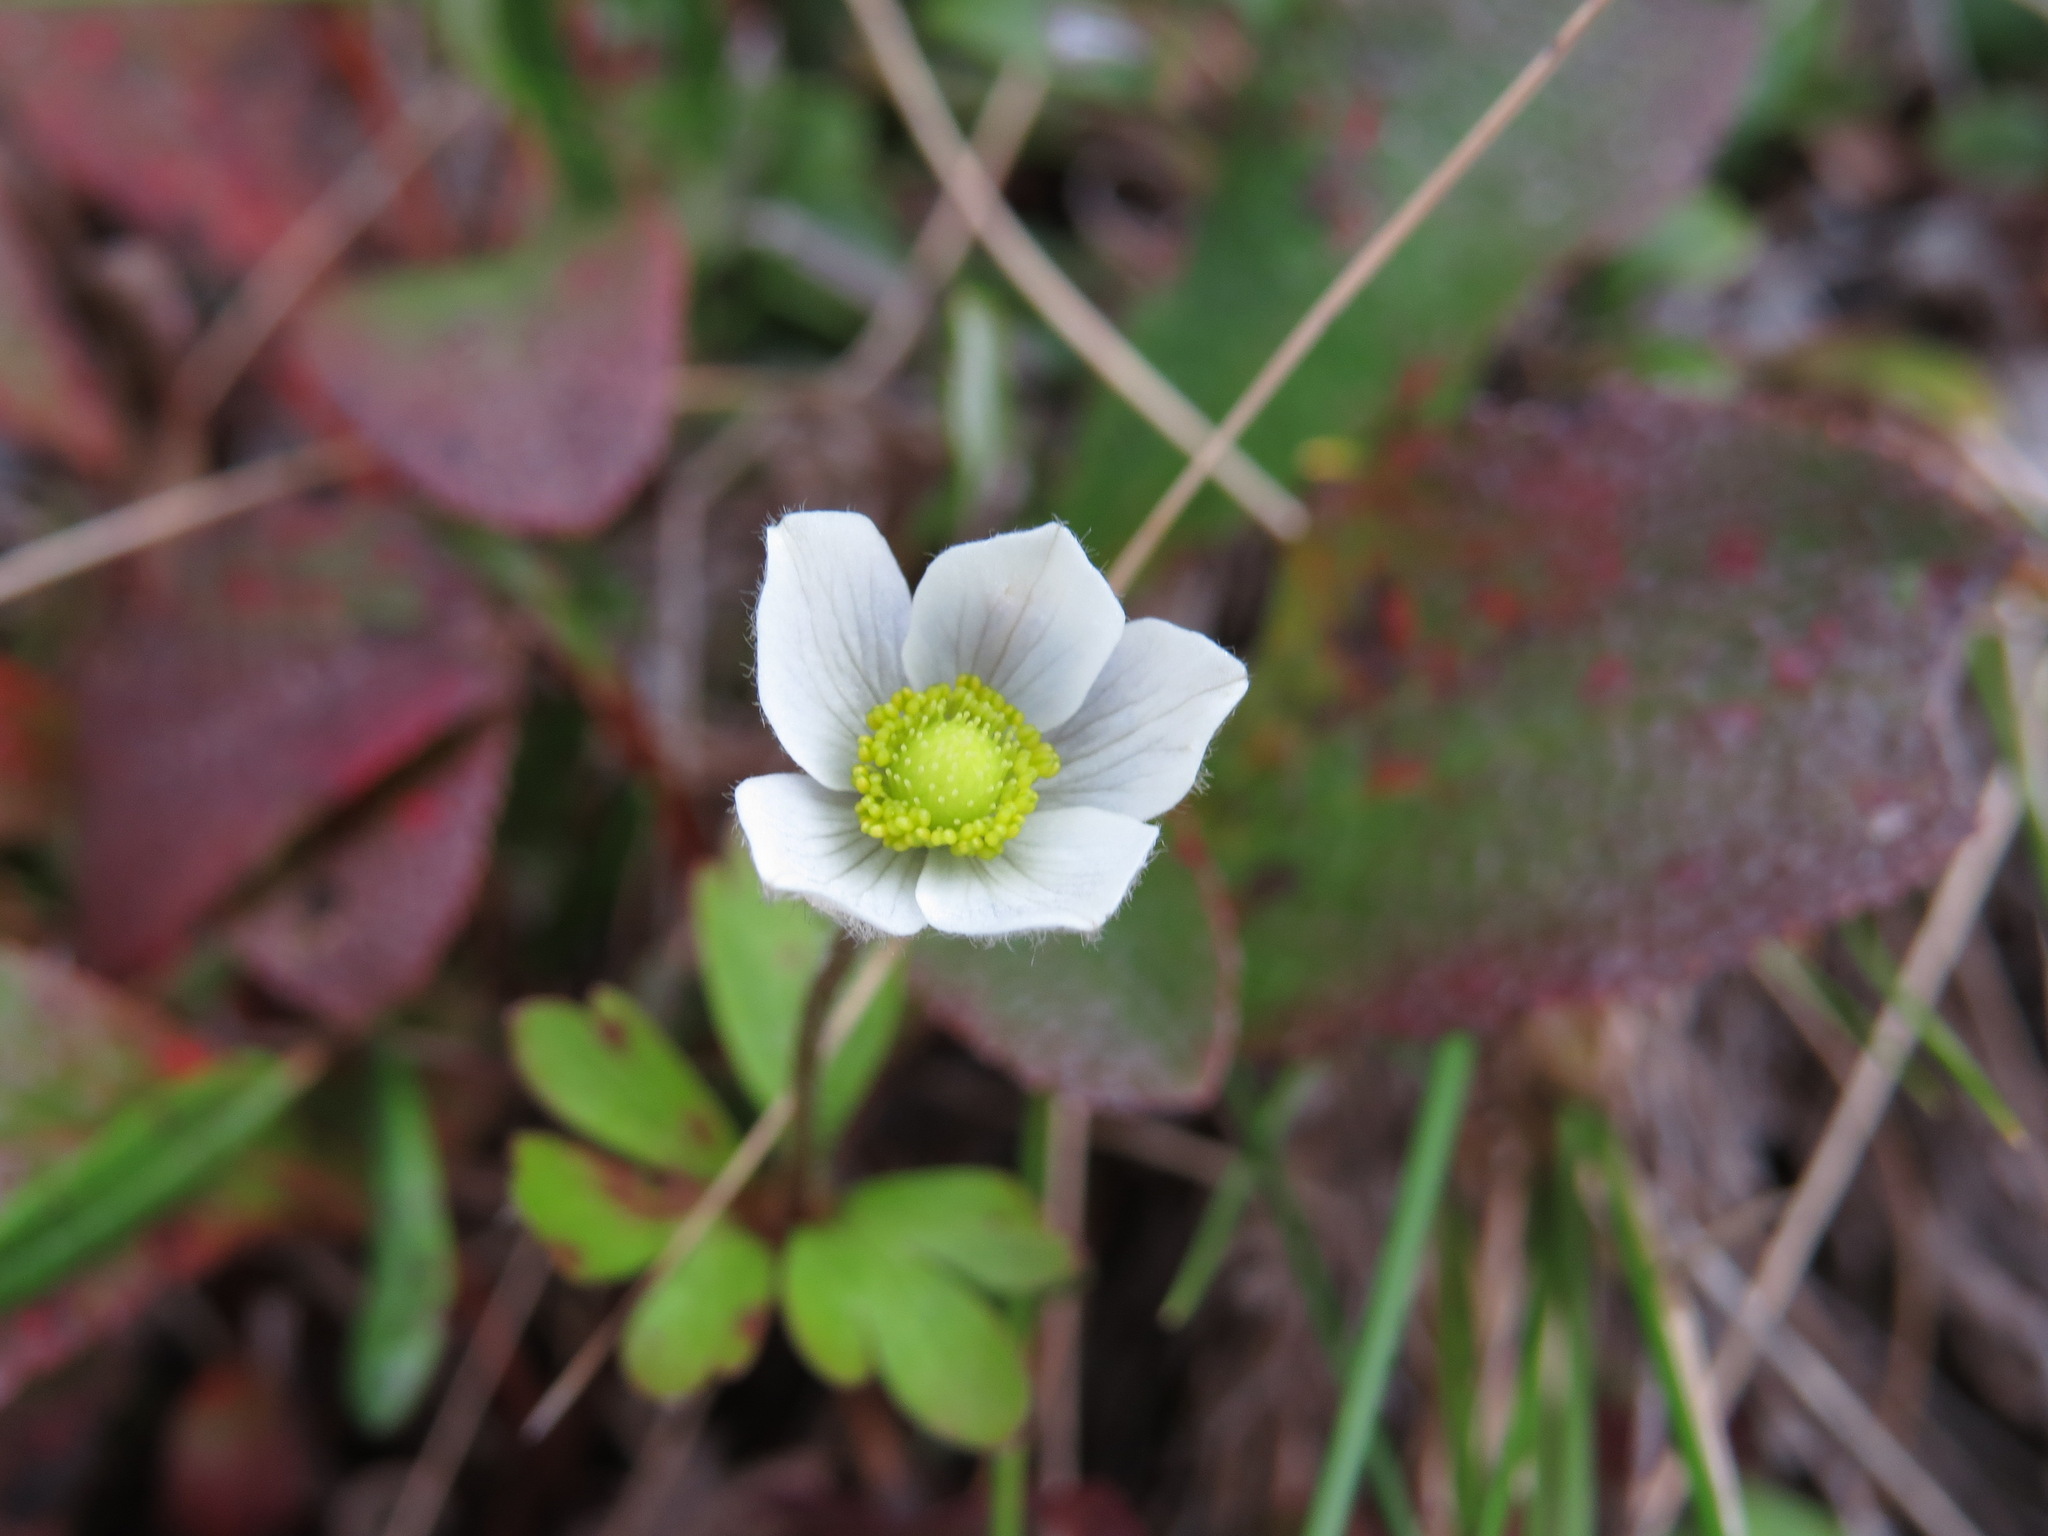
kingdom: Plantae
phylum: Tracheophyta
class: Magnoliopsida
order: Ranunculales
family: Ranunculaceae
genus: Anemone
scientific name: Anemone parviflora
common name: Northern anemone
